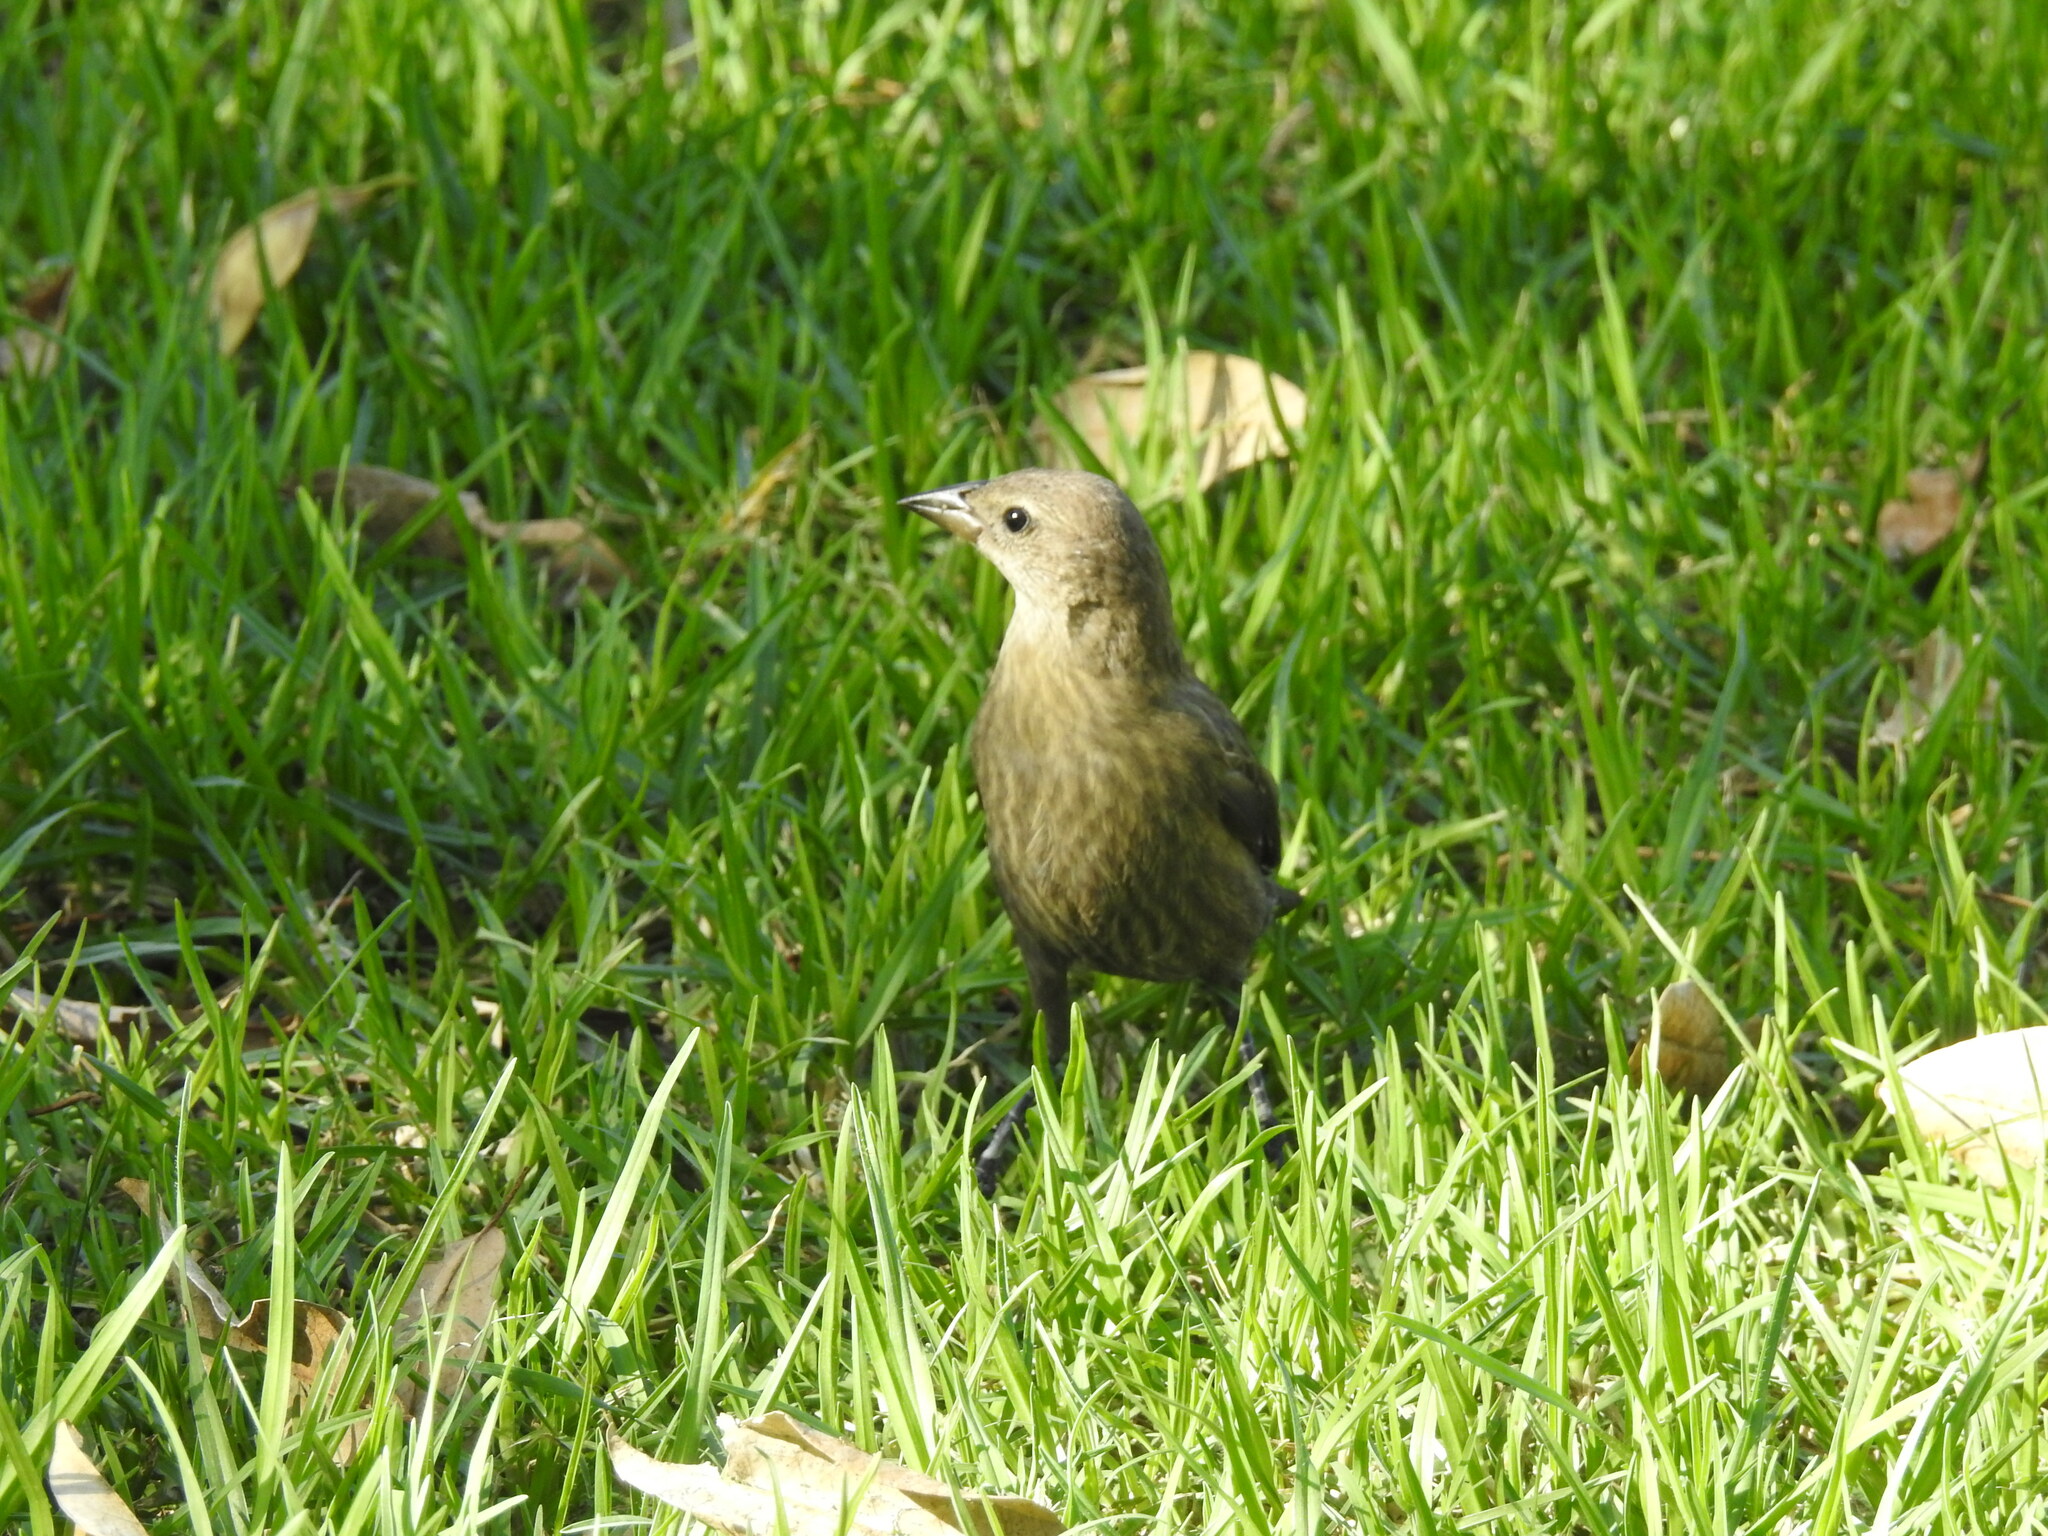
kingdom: Animalia
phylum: Chordata
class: Aves
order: Passeriformes
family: Icteridae
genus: Molothrus
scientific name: Molothrus bonariensis
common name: Shiny cowbird
